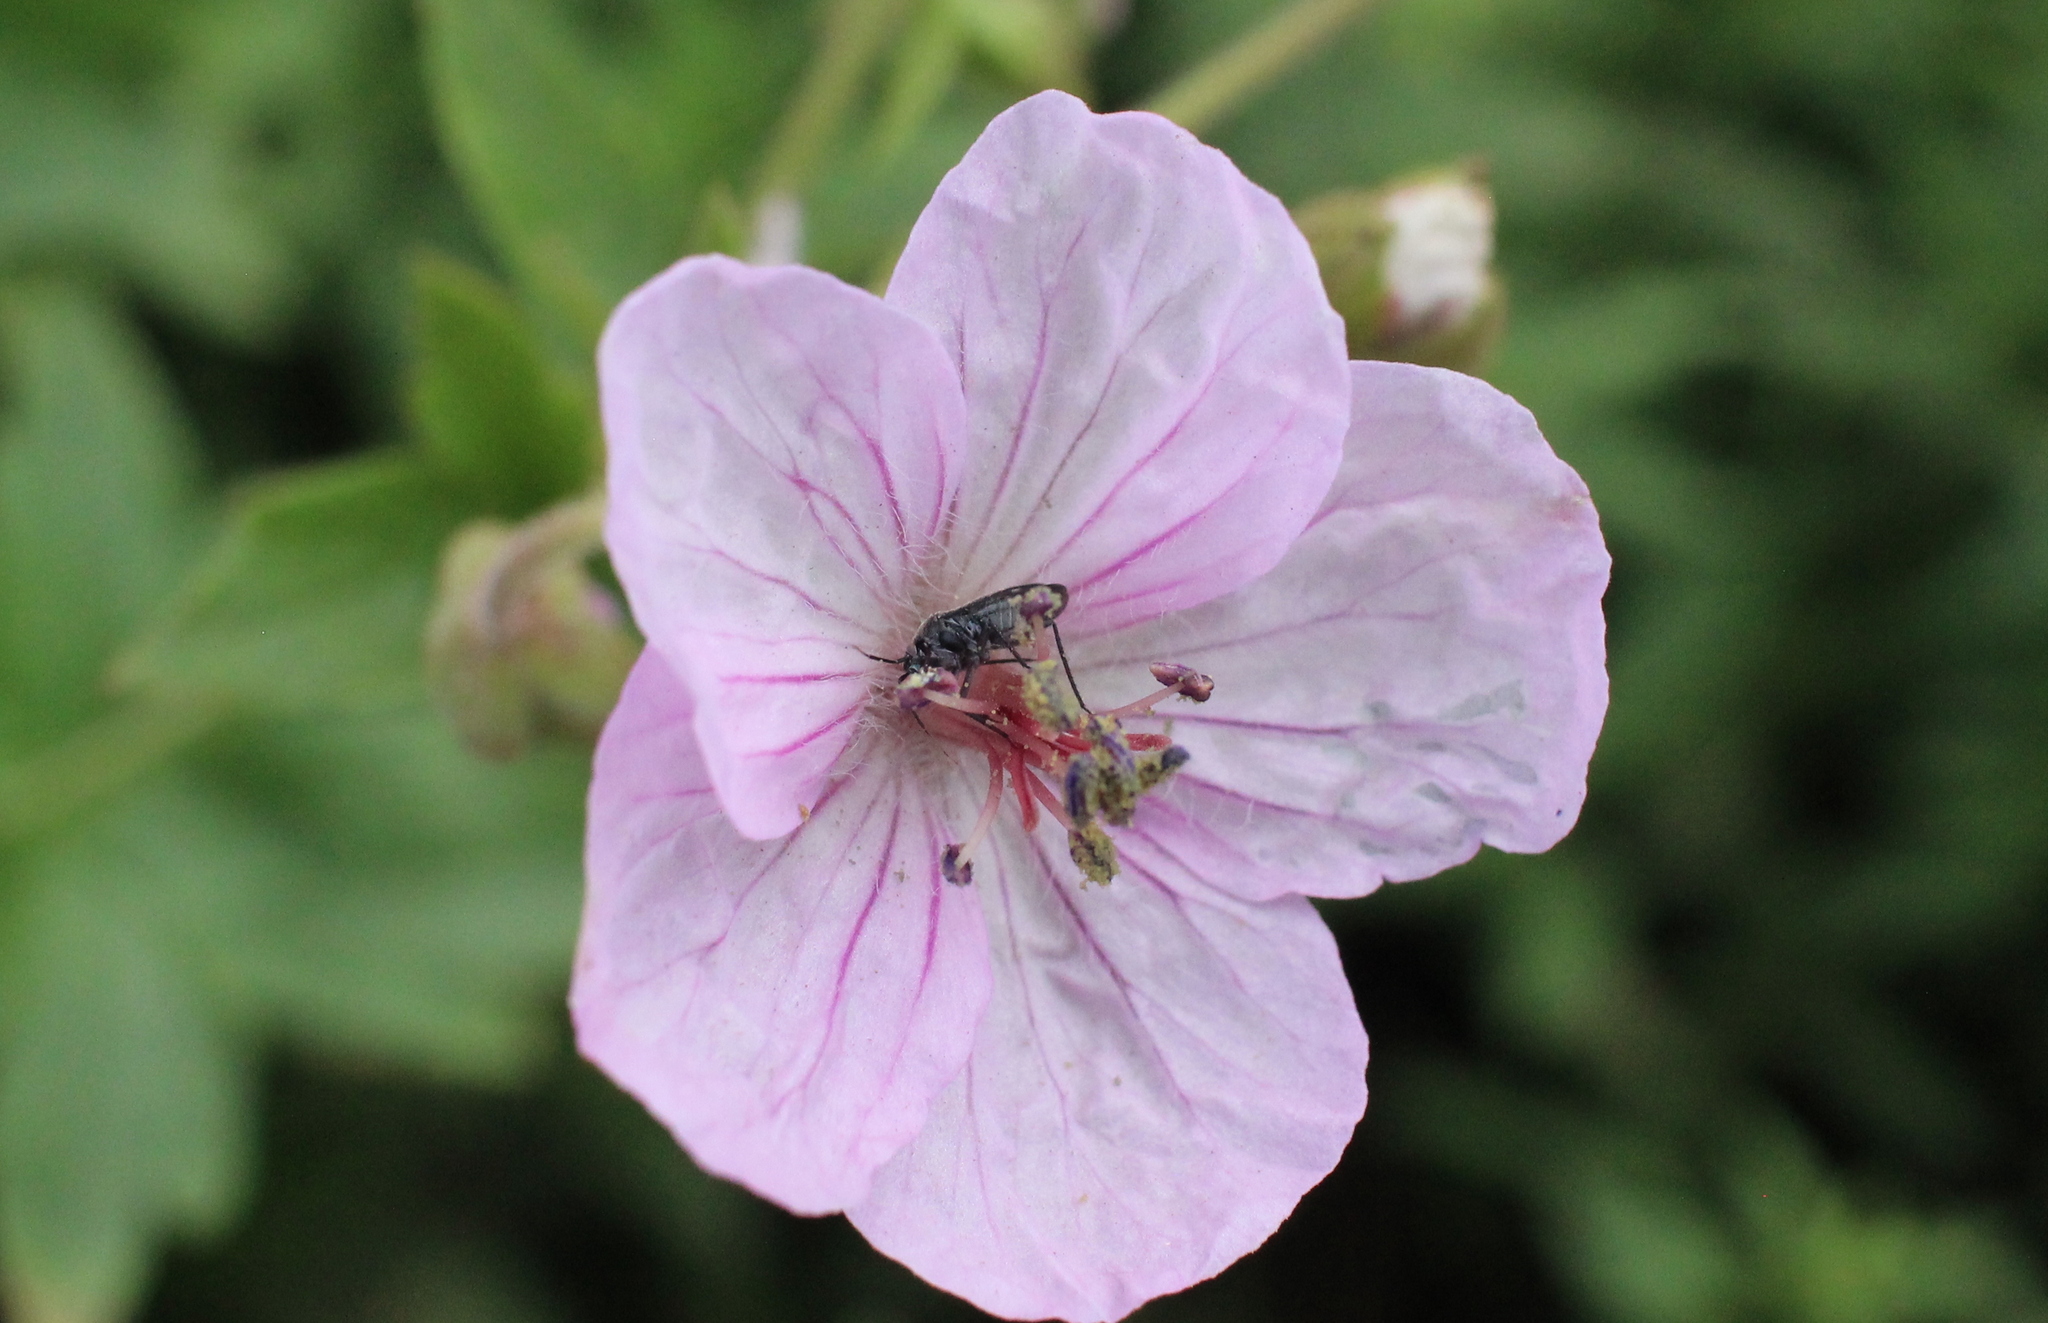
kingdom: Plantae
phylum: Tracheophyta
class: Magnoliopsida
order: Geraniales
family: Geraniaceae
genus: Geranium
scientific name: Geranium viscosissimum
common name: Purple geranium
